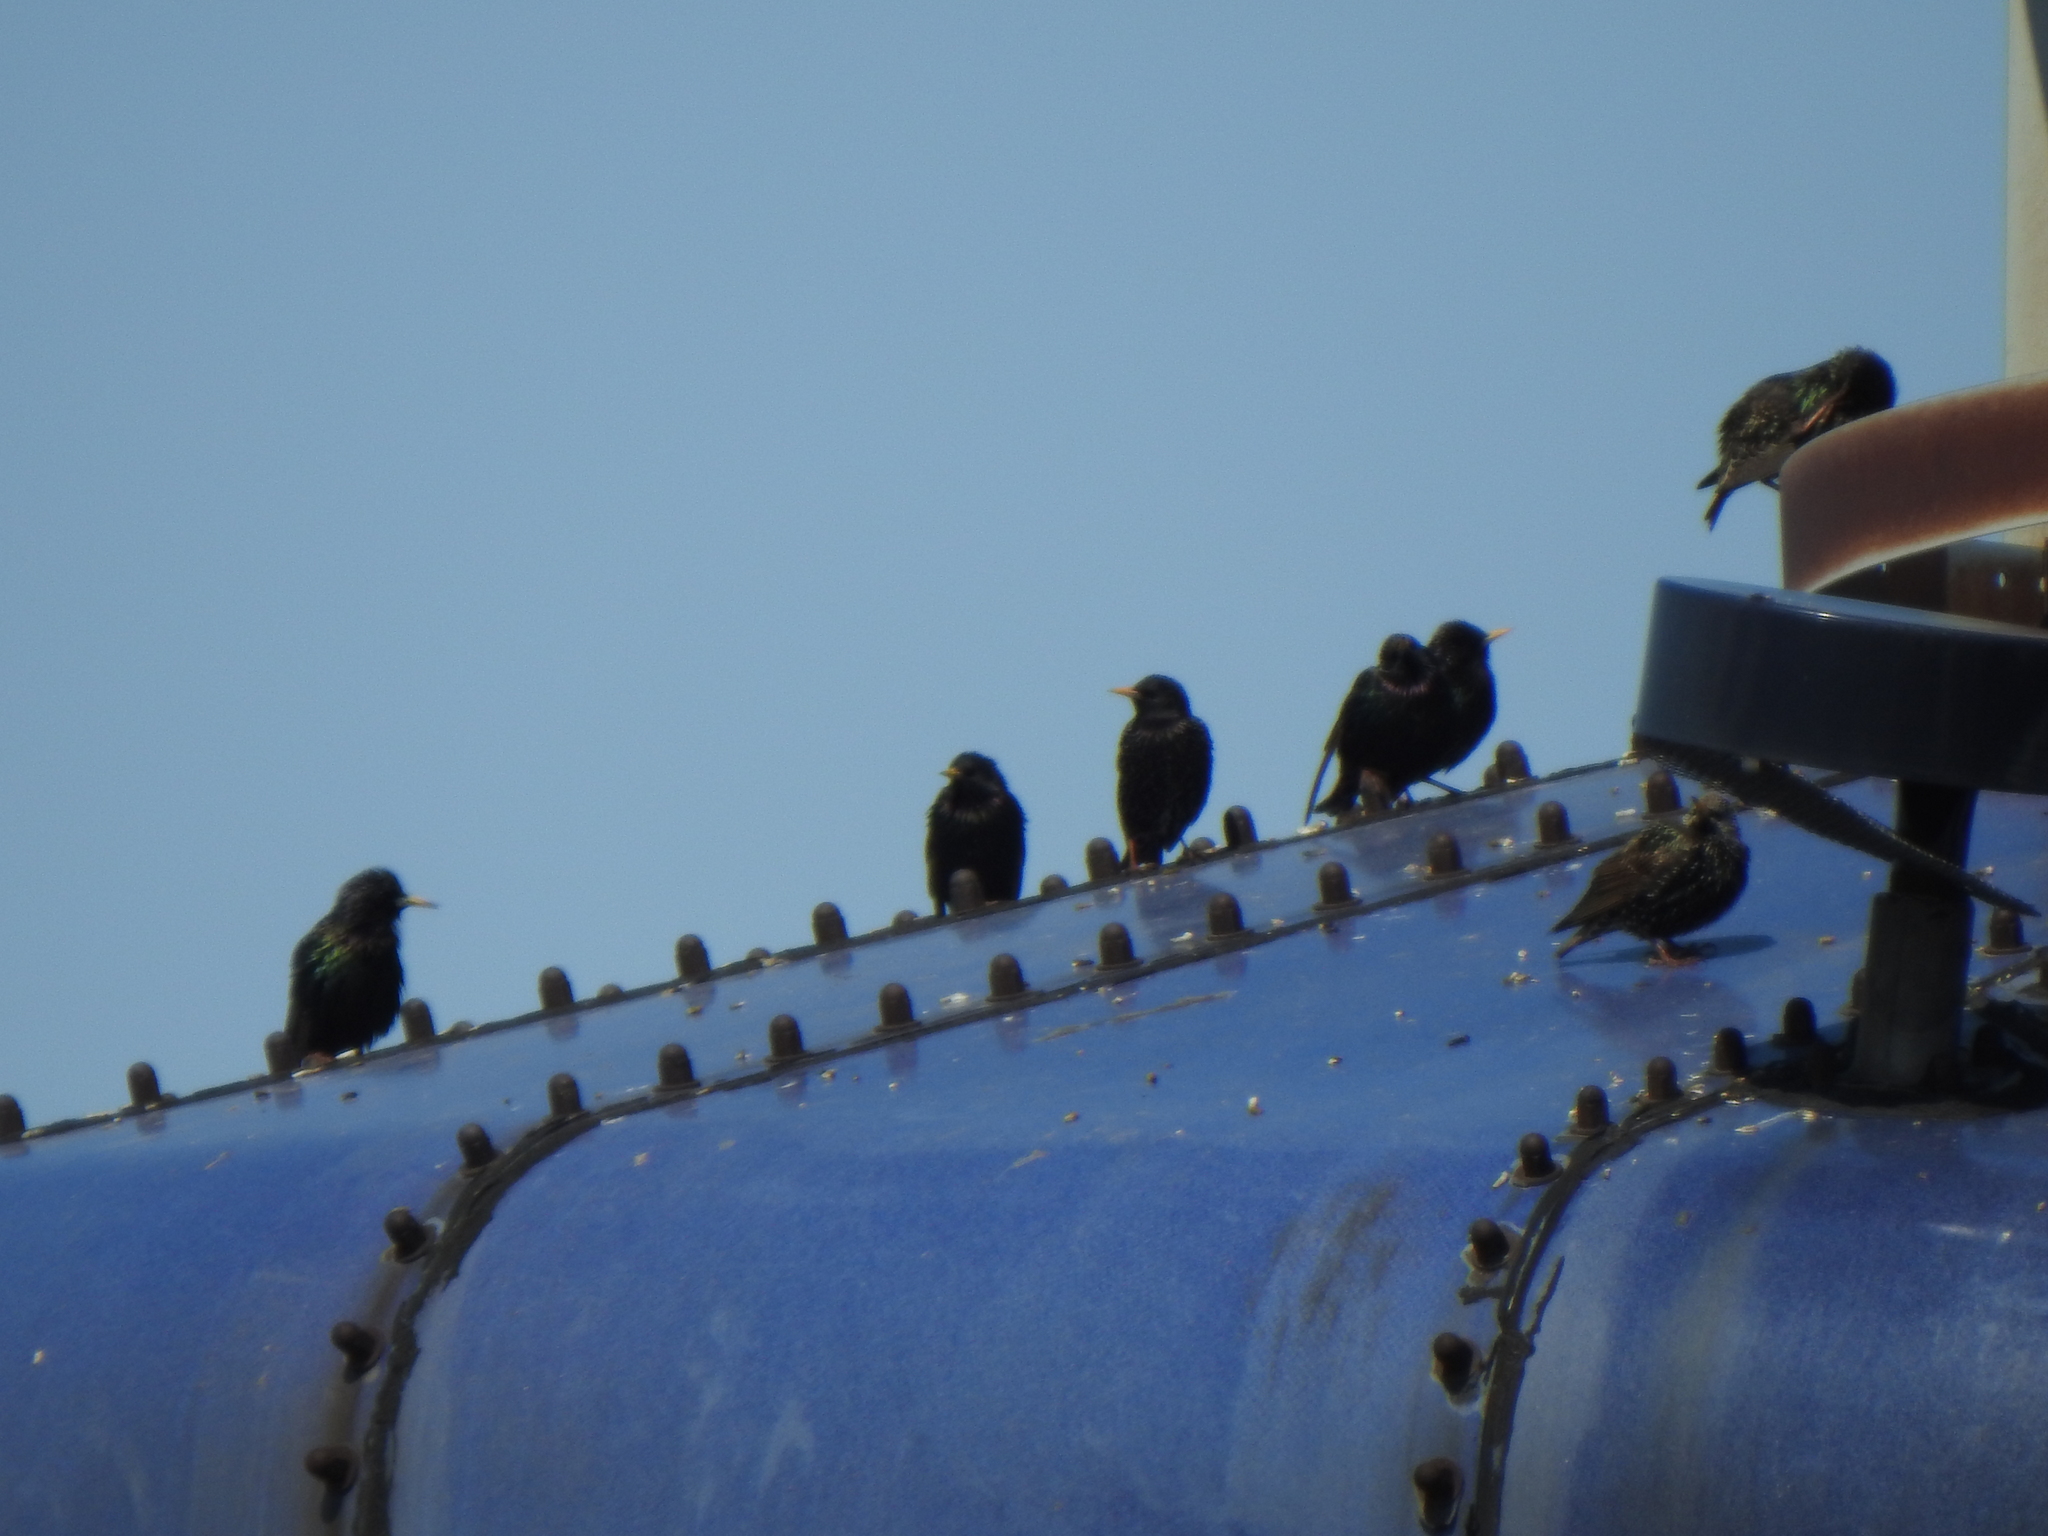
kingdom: Animalia
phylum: Chordata
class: Aves
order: Passeriformes
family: Sturnidae
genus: Sturnus
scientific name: Sturnus vulgaris
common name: Common starling
